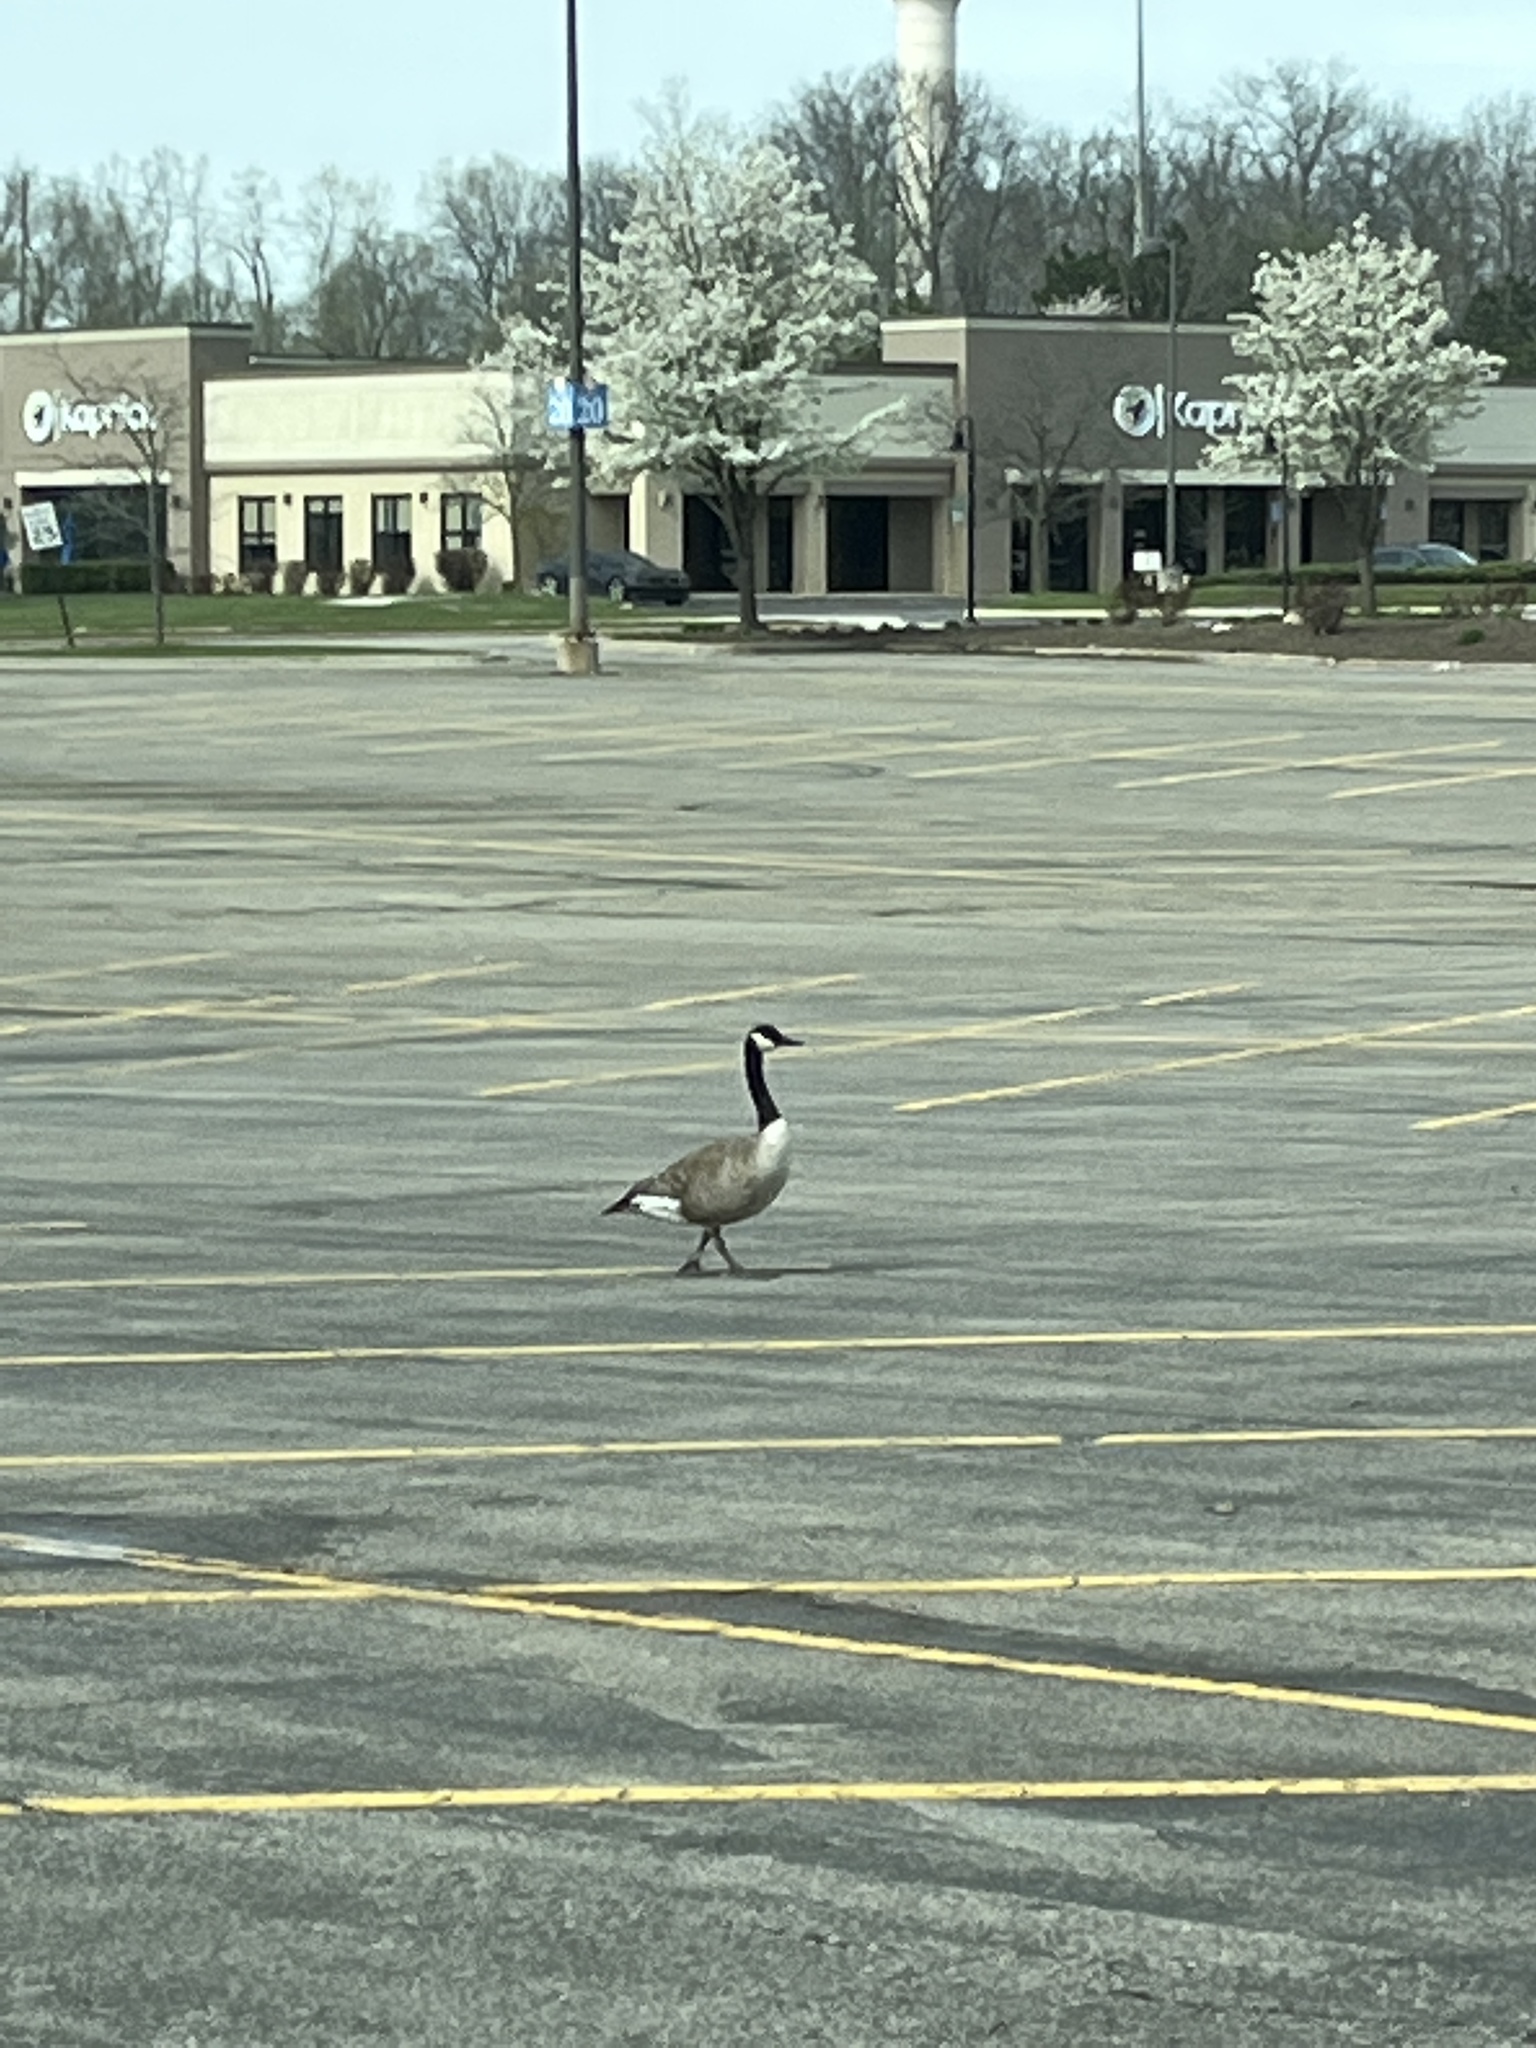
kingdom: Animalia
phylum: Chordata
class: Aves
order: Anseriformes
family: Anatidae
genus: Branta
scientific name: Branta canadensis
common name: Canada goose
